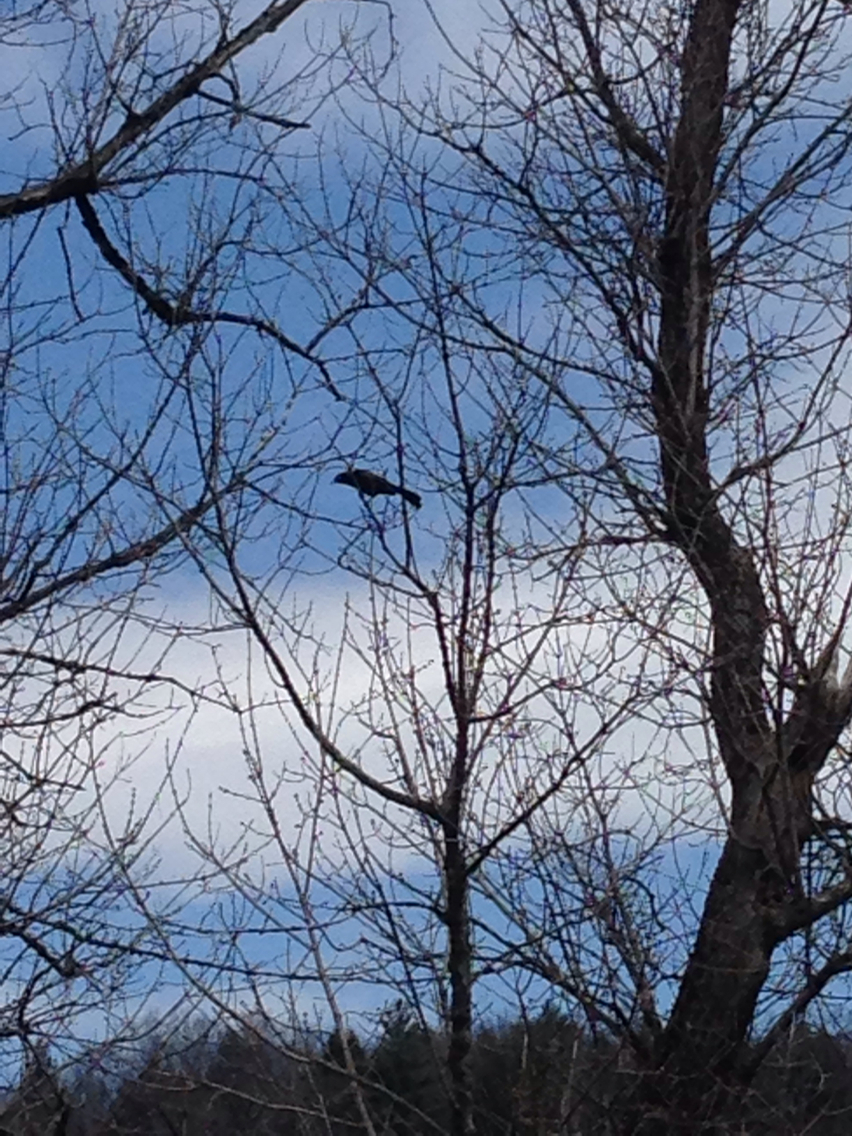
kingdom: Animalia
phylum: Chordata
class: Aves
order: Passeriformes
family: Icteridae
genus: Quiscalus
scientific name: Quiscalus quiscula
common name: Common grackle
